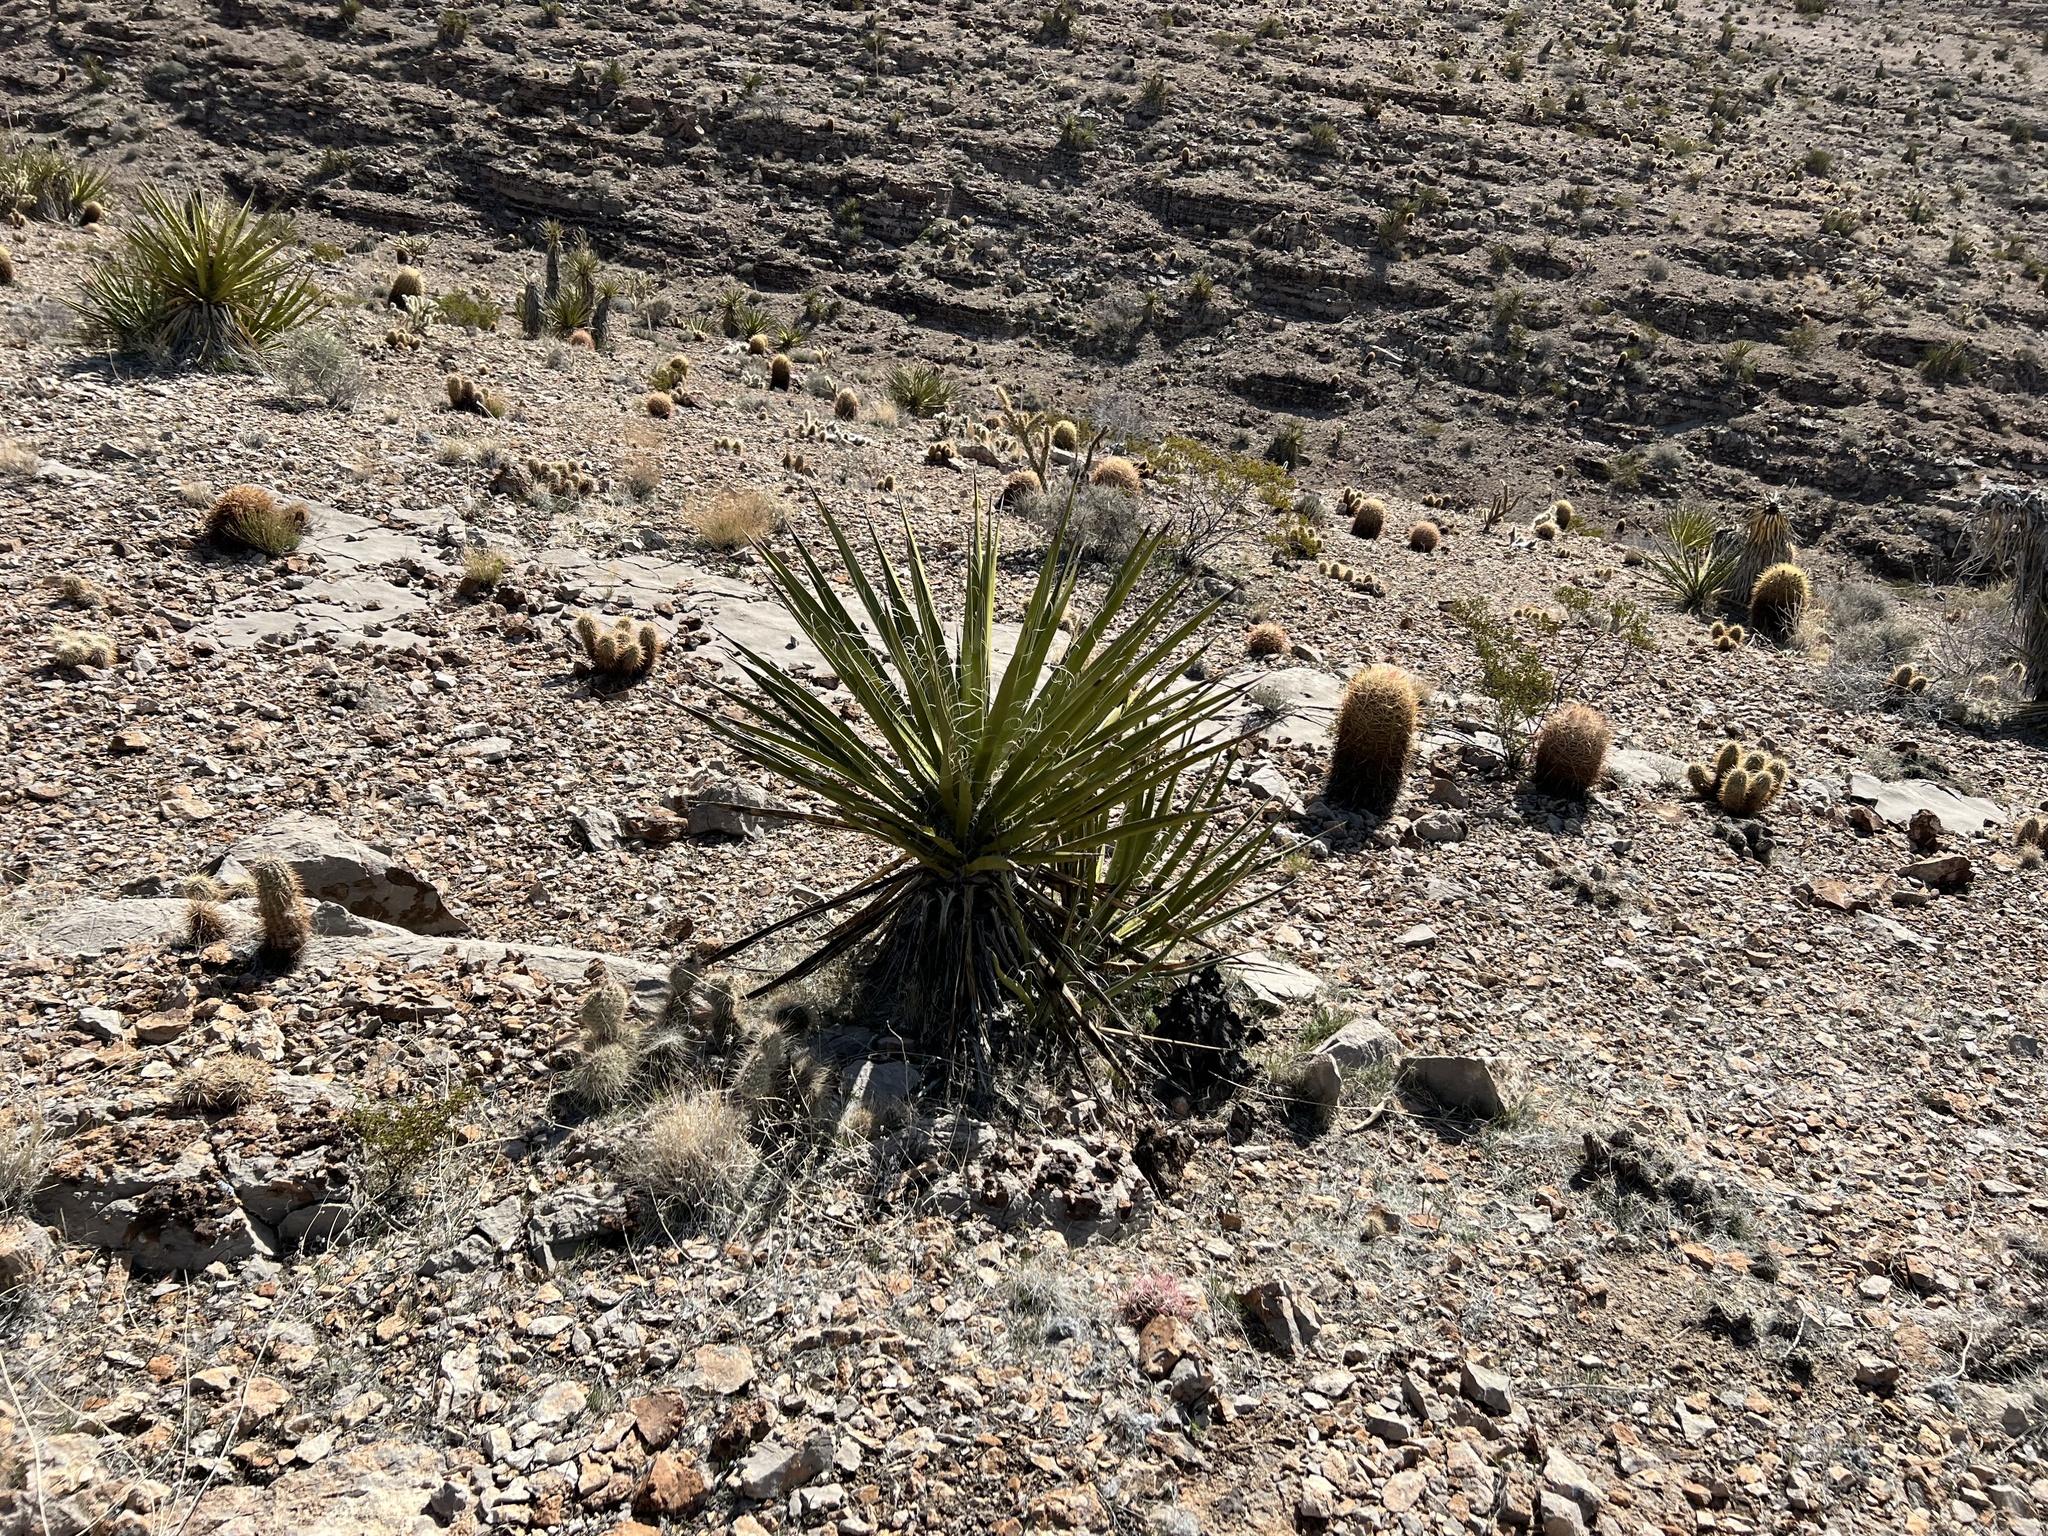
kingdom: Plantae
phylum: Tracheophyta
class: Liliopsida
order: Asparagales
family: Asparagaceae
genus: Yucca
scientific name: Yucca schidigera
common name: Mojave yucca
